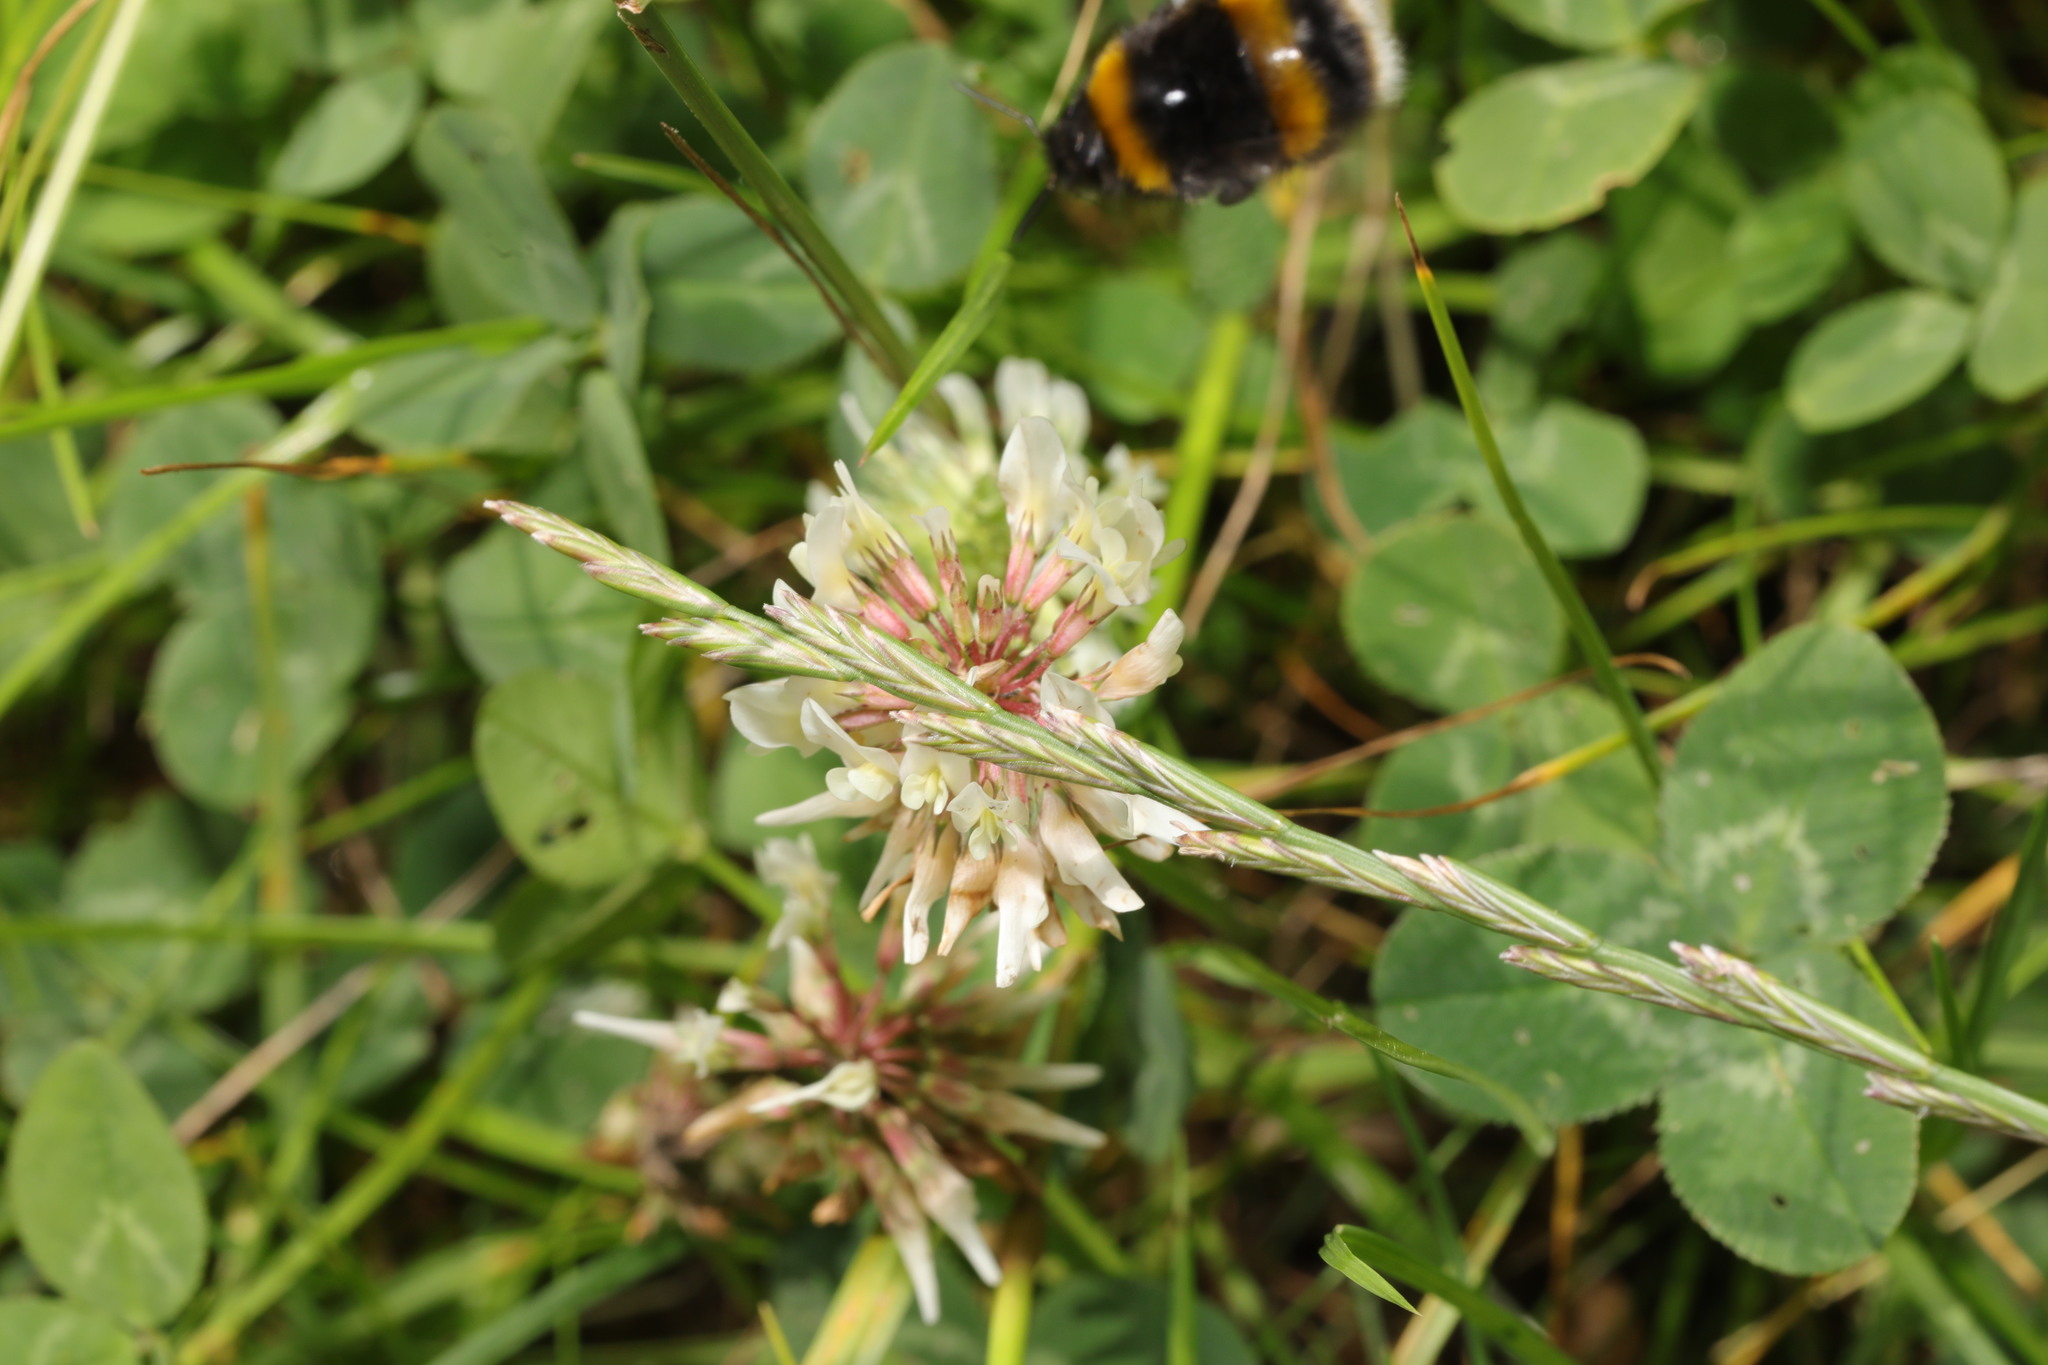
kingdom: Plantae
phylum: Tracheophyta
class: Magnoliopsida
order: Fabales
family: Fabaceae
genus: Trifolium
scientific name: Trifolium repens
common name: White clover
